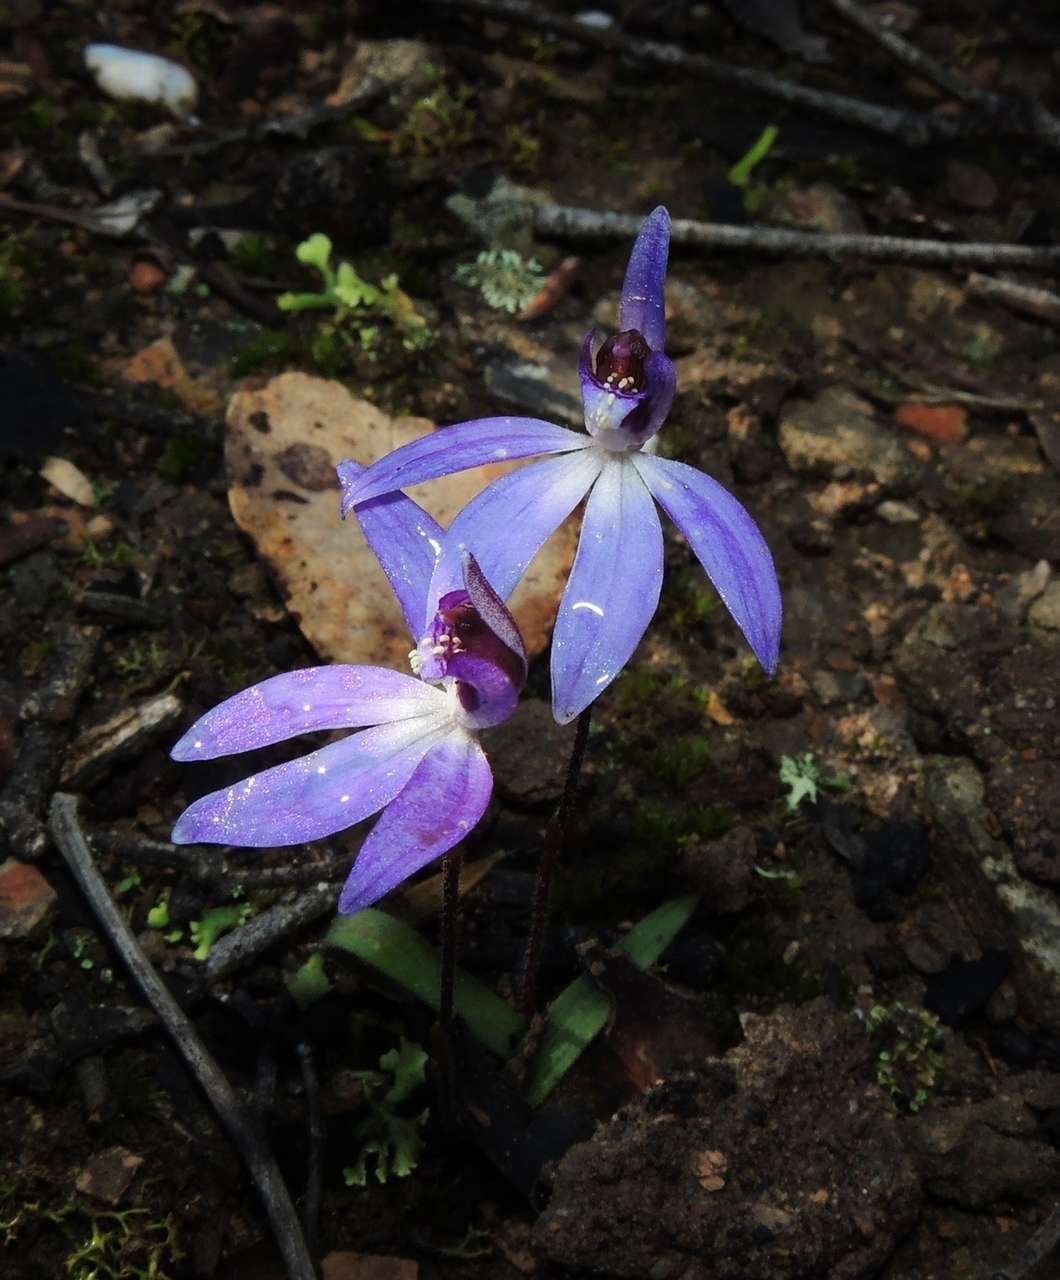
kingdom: Plantae
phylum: Tracheophyta
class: Liliopsida
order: Asparagales
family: Orchidaceae
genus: Caladenia
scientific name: Caladenia caerulea
